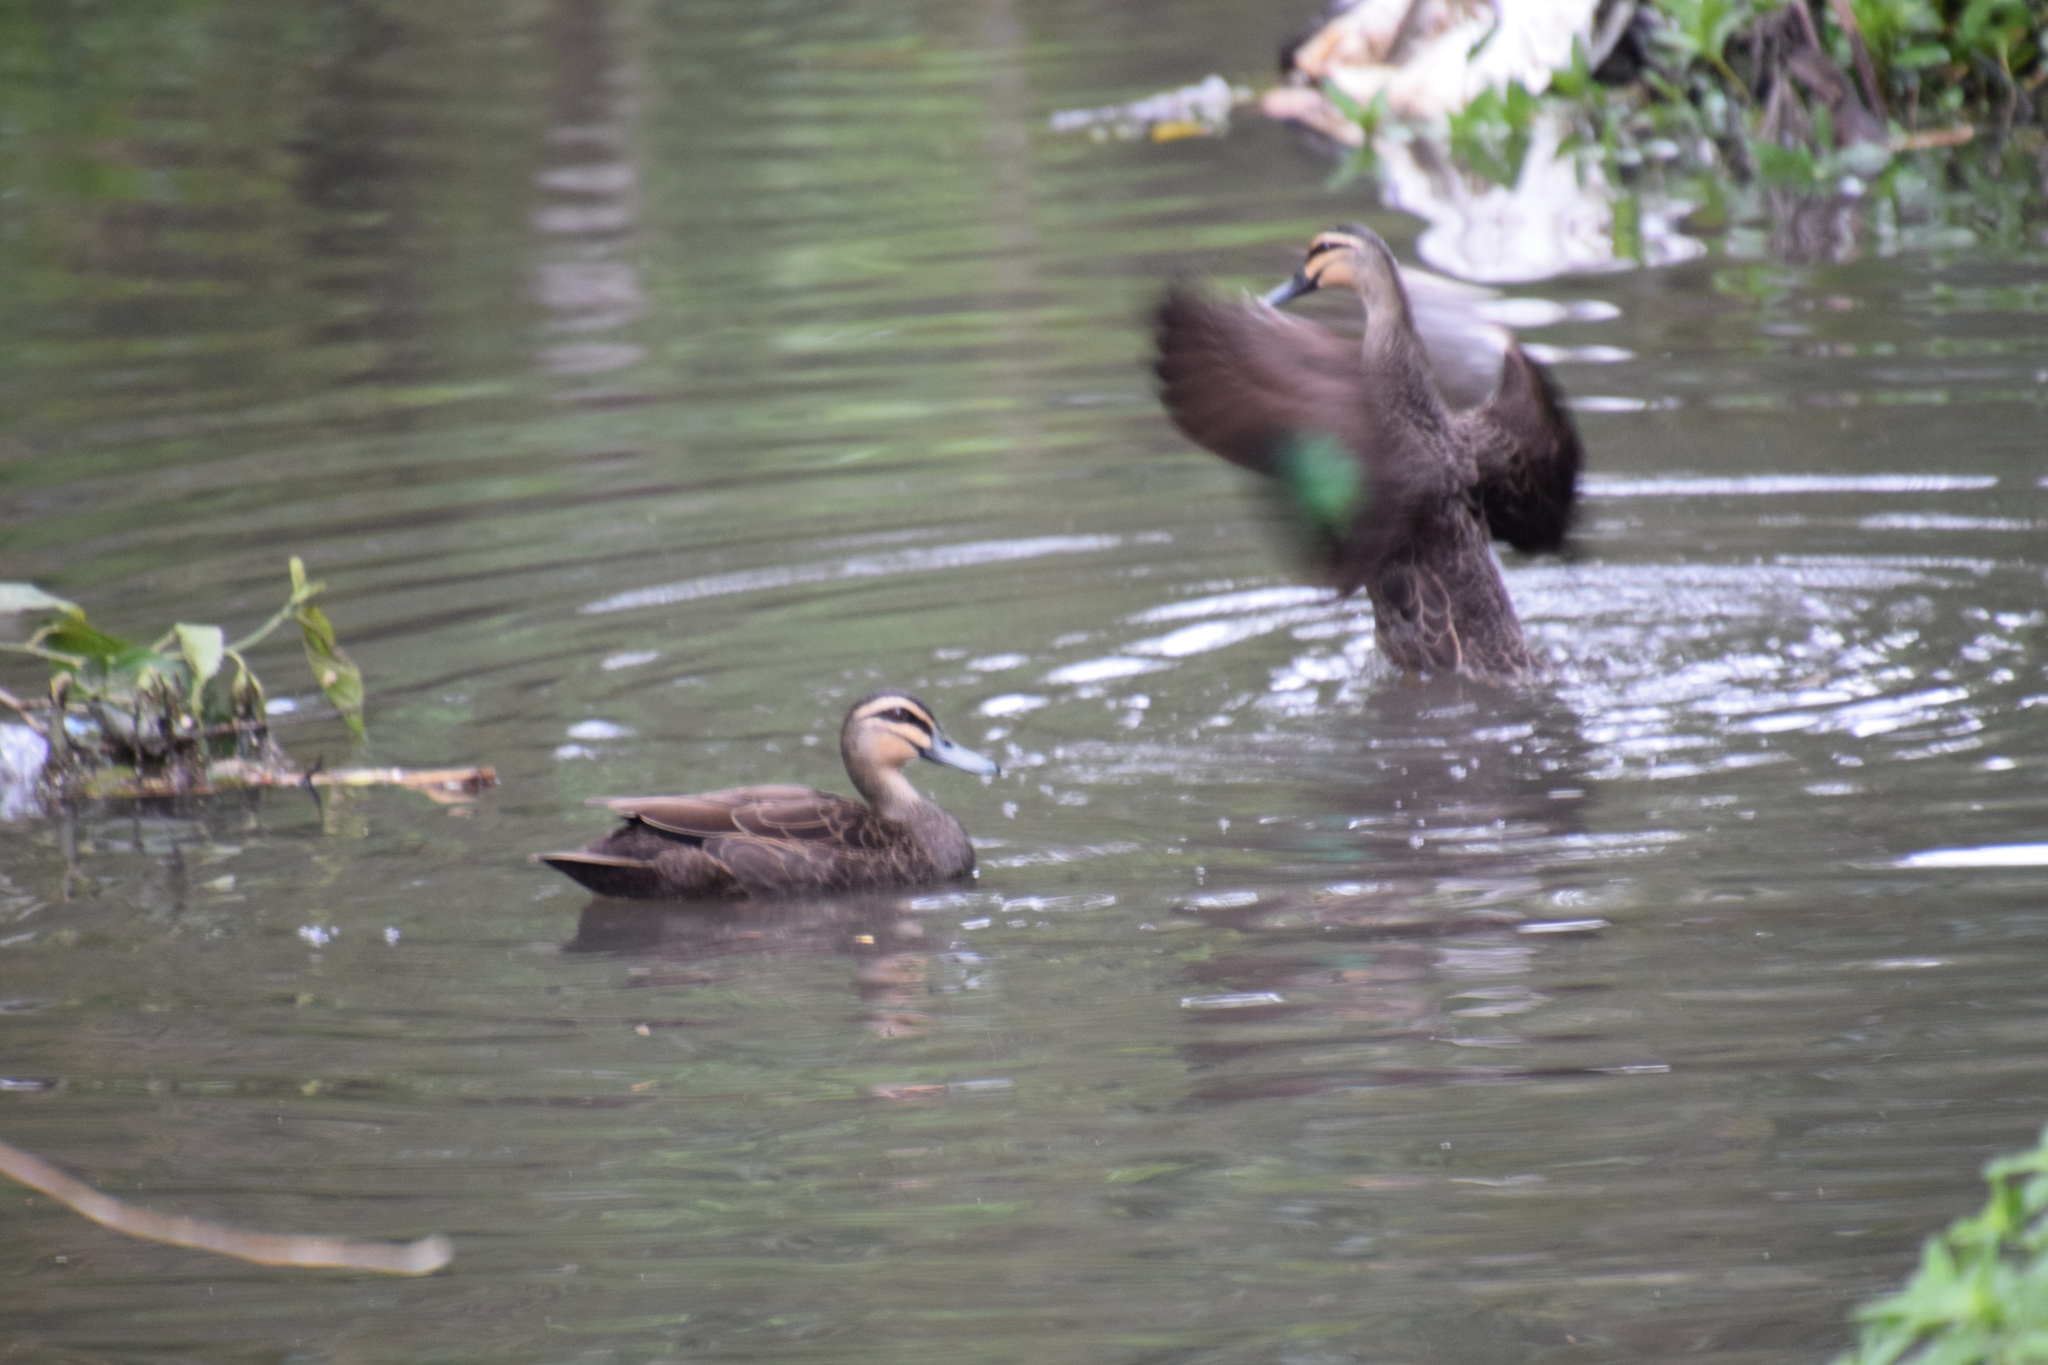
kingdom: Animalia
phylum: Chordata
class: Aves
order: Anseriformes
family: Anatidae
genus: Anas
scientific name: Anas superciliosa
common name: Pacific black duck
